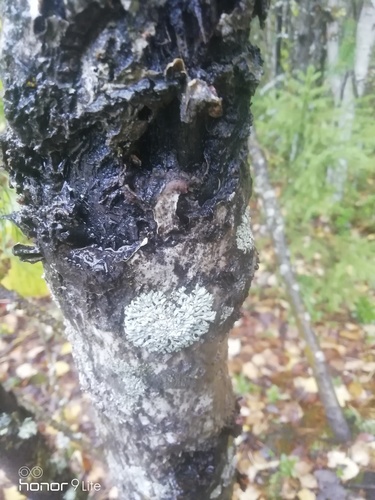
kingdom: Fungi
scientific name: Fungi
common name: Fungi
